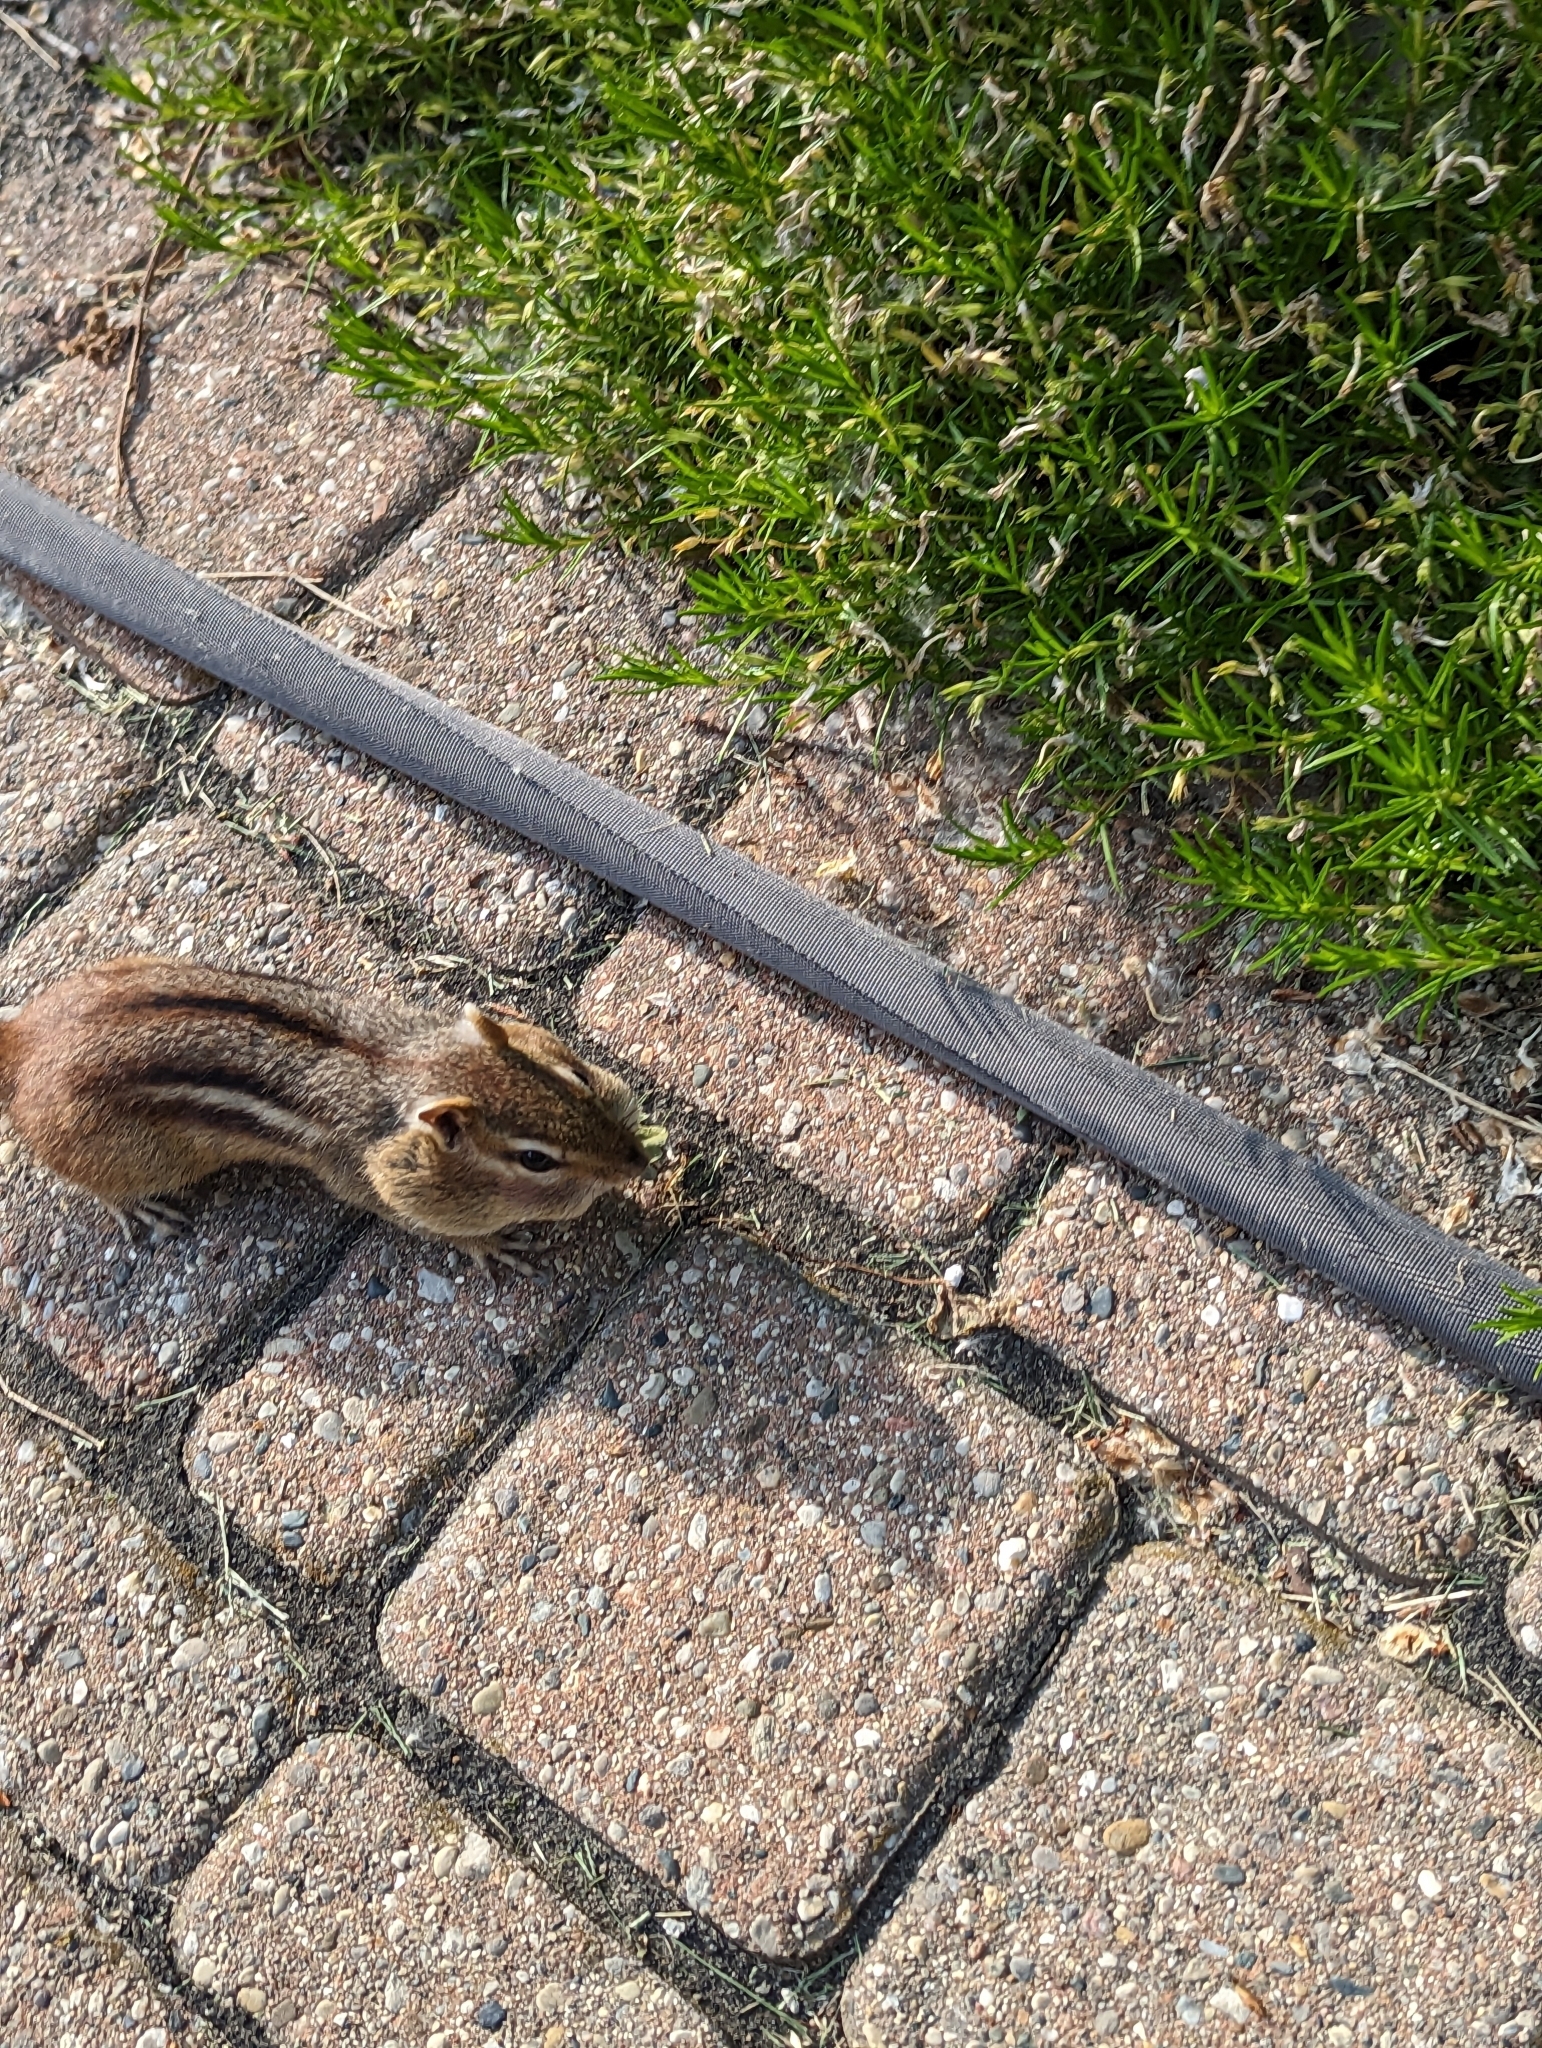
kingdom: Animalia
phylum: Chordata
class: Mammalia
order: Rodentia
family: Sciuridae
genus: Tamias
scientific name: Tamias striatus
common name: Eastern chipmunk
